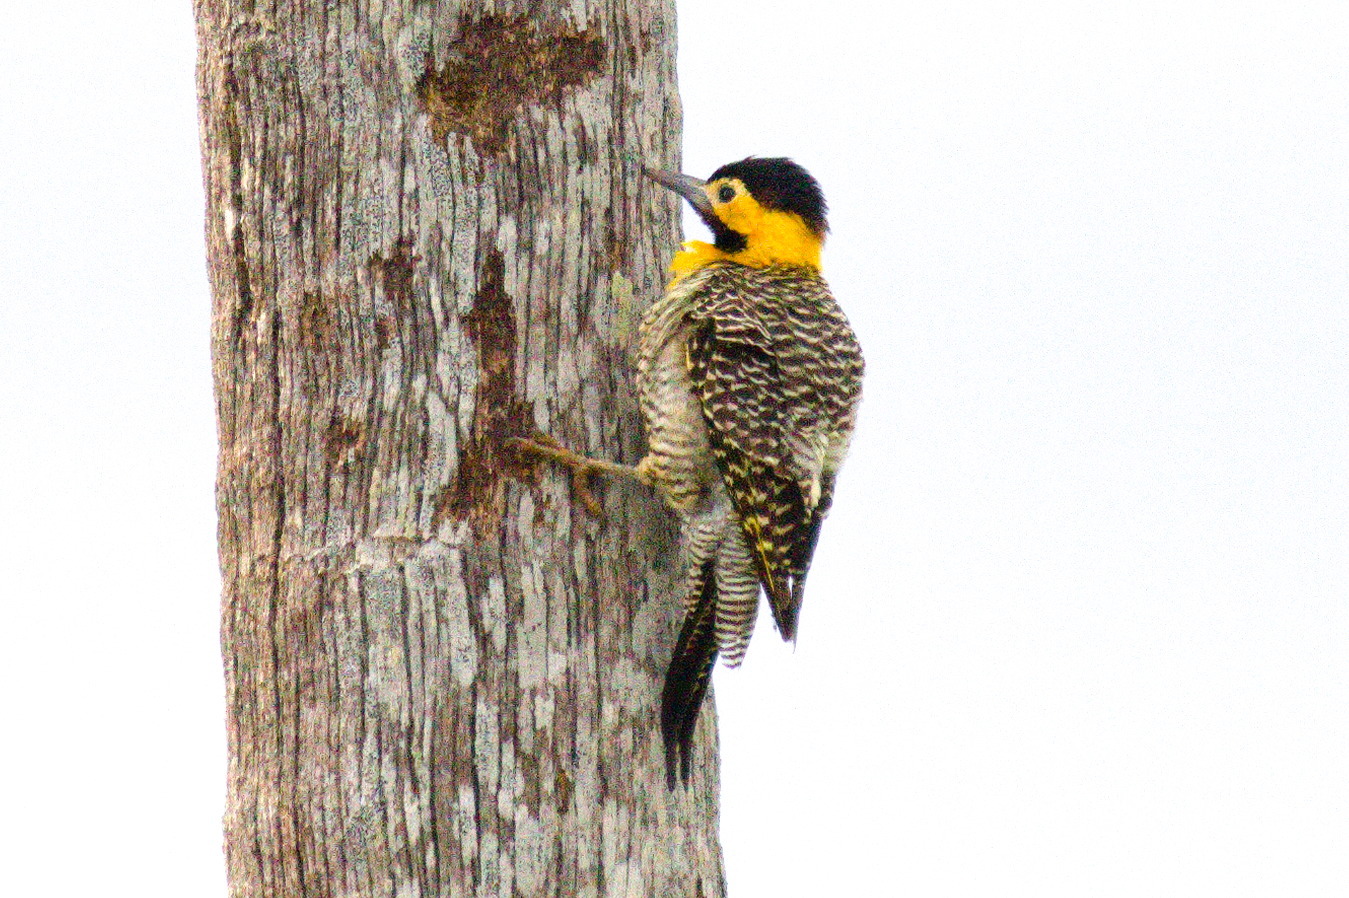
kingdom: Animalia
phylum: Chordata
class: Aves
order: Piciformes
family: Picidae
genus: Colaptes
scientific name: Colaptes campestris
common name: Campo flicker
